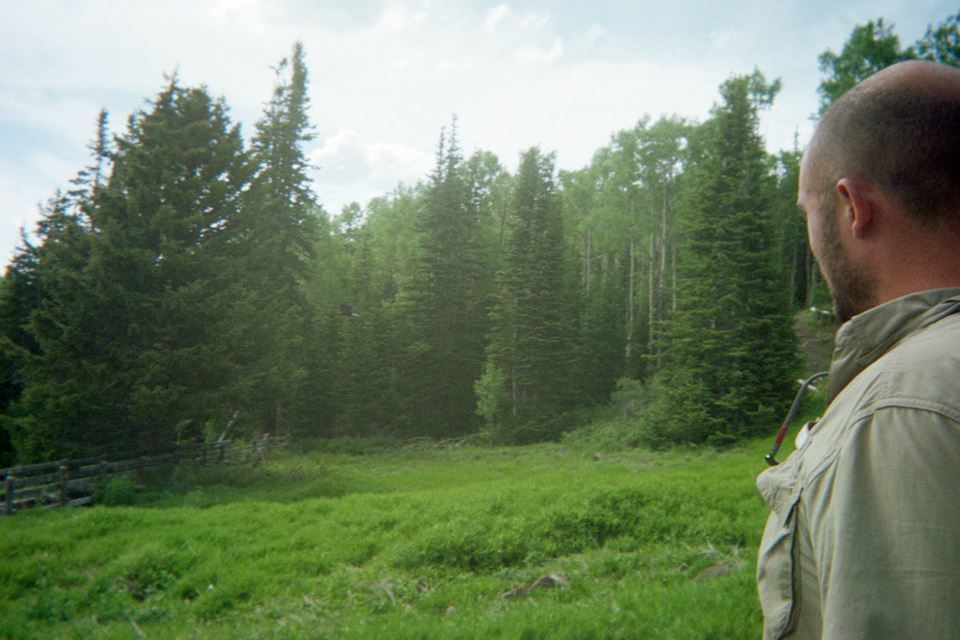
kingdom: Animalia
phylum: Chordata
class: Aves
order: Accipitriformes
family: Accipitridae
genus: Haliaeetus
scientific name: Haliaeetus leucocephalus
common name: Bald eagle
